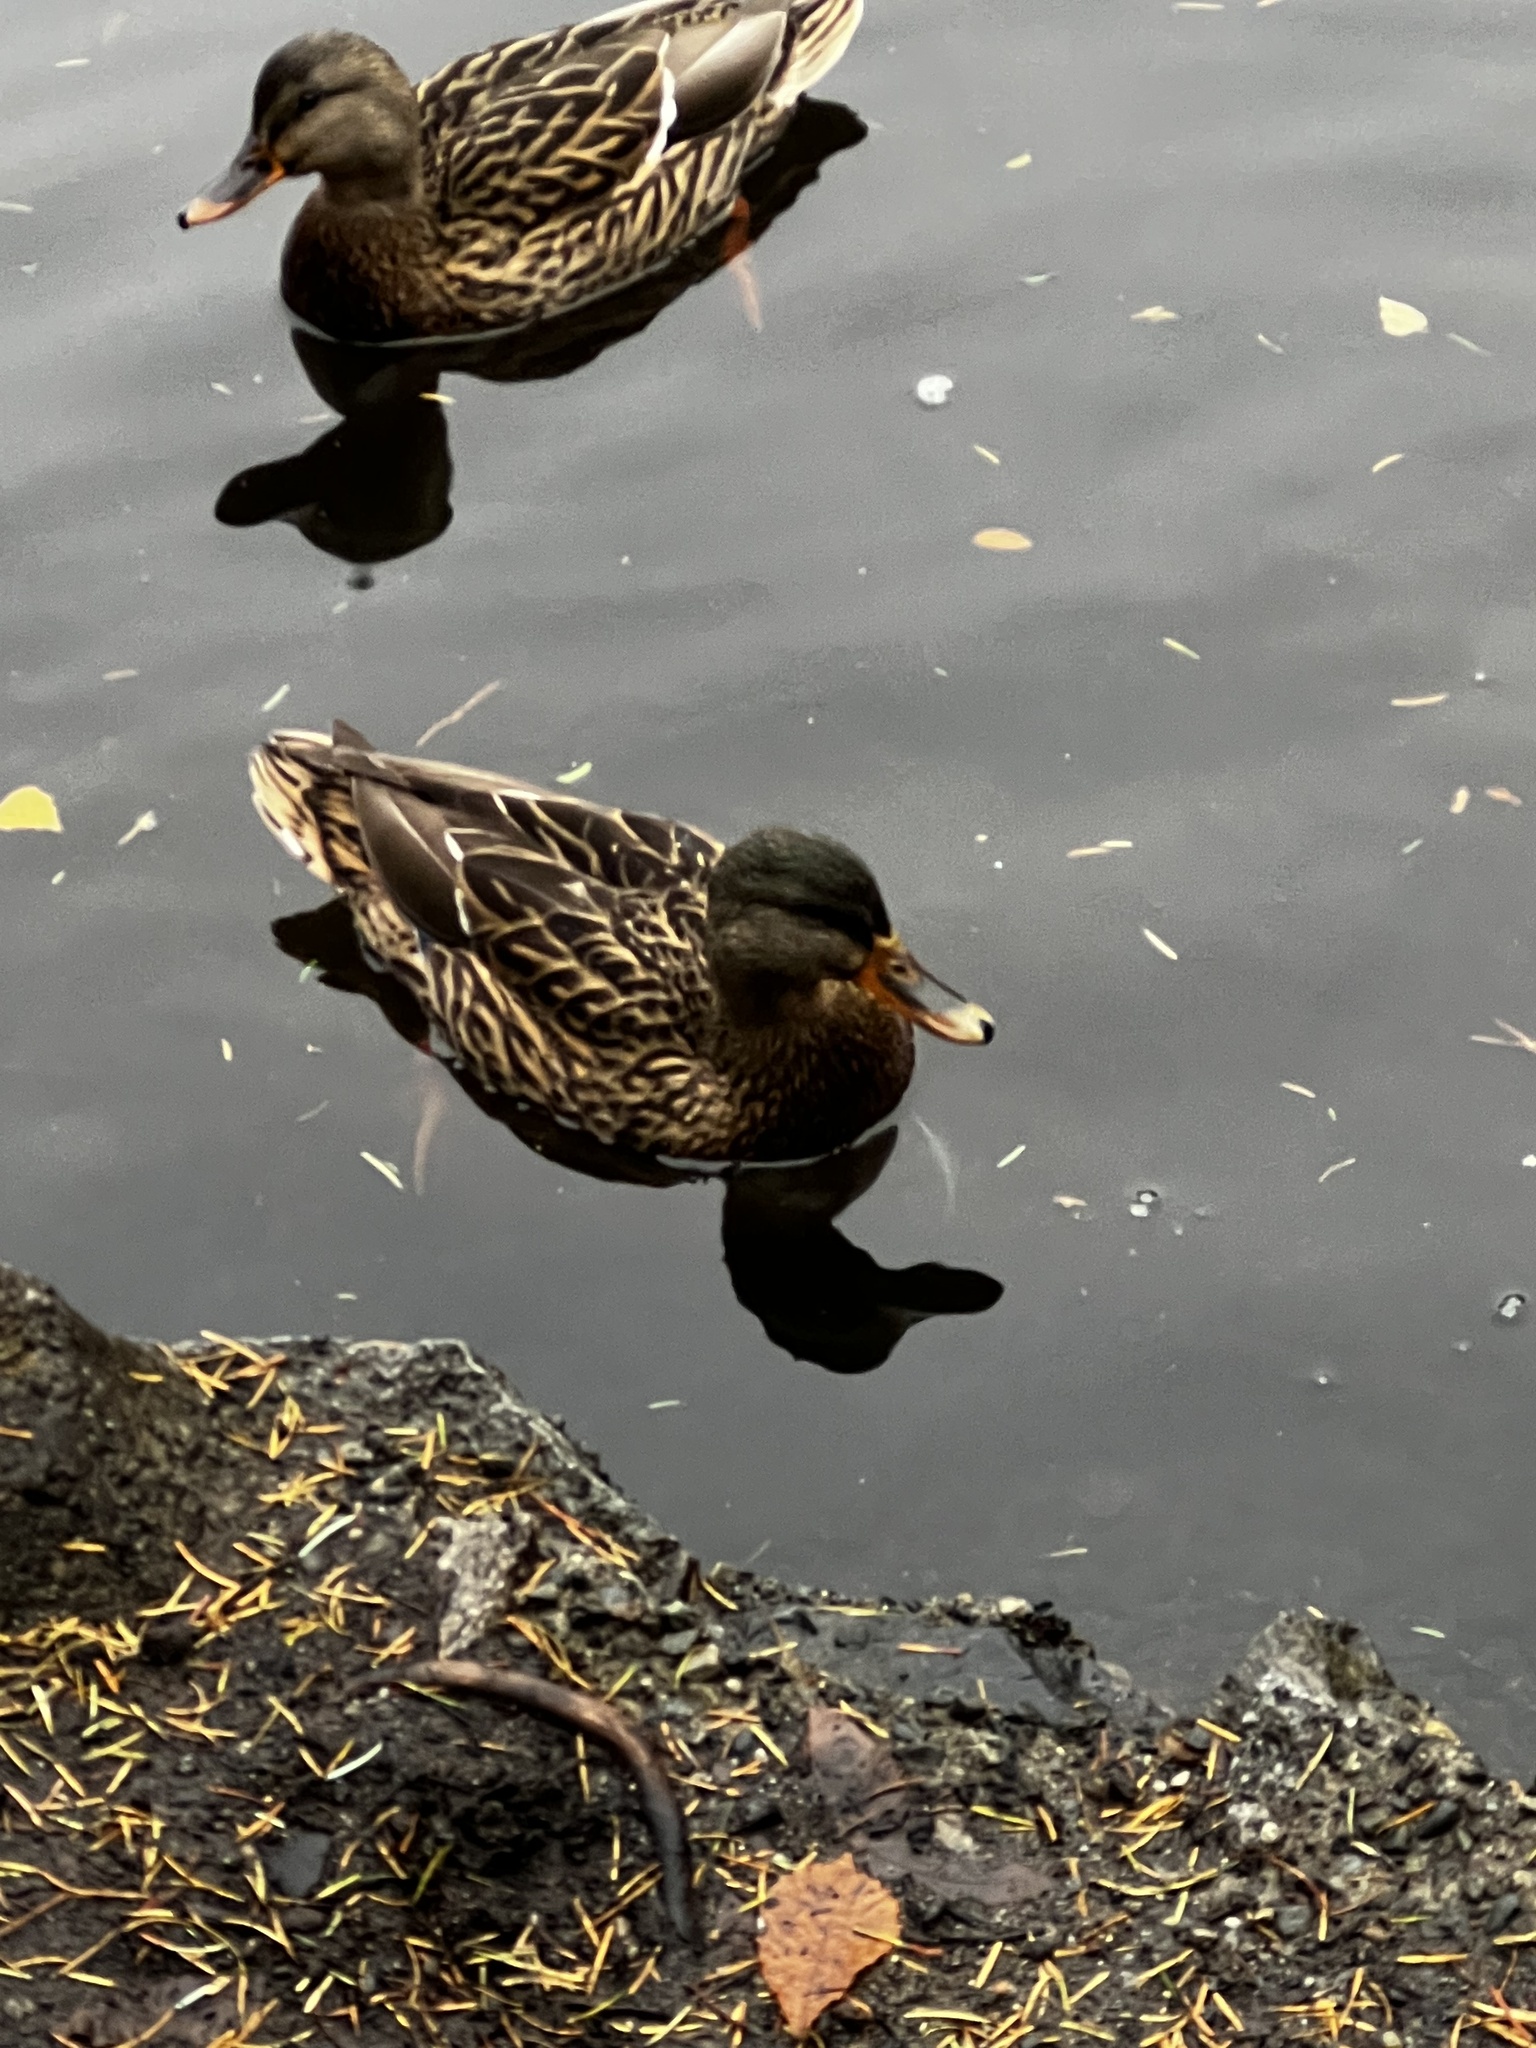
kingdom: Animalia
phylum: Chordata
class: Aves
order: Anseriformes
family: Anatidae
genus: Anas
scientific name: Anas platyrhynchos
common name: Mallard
